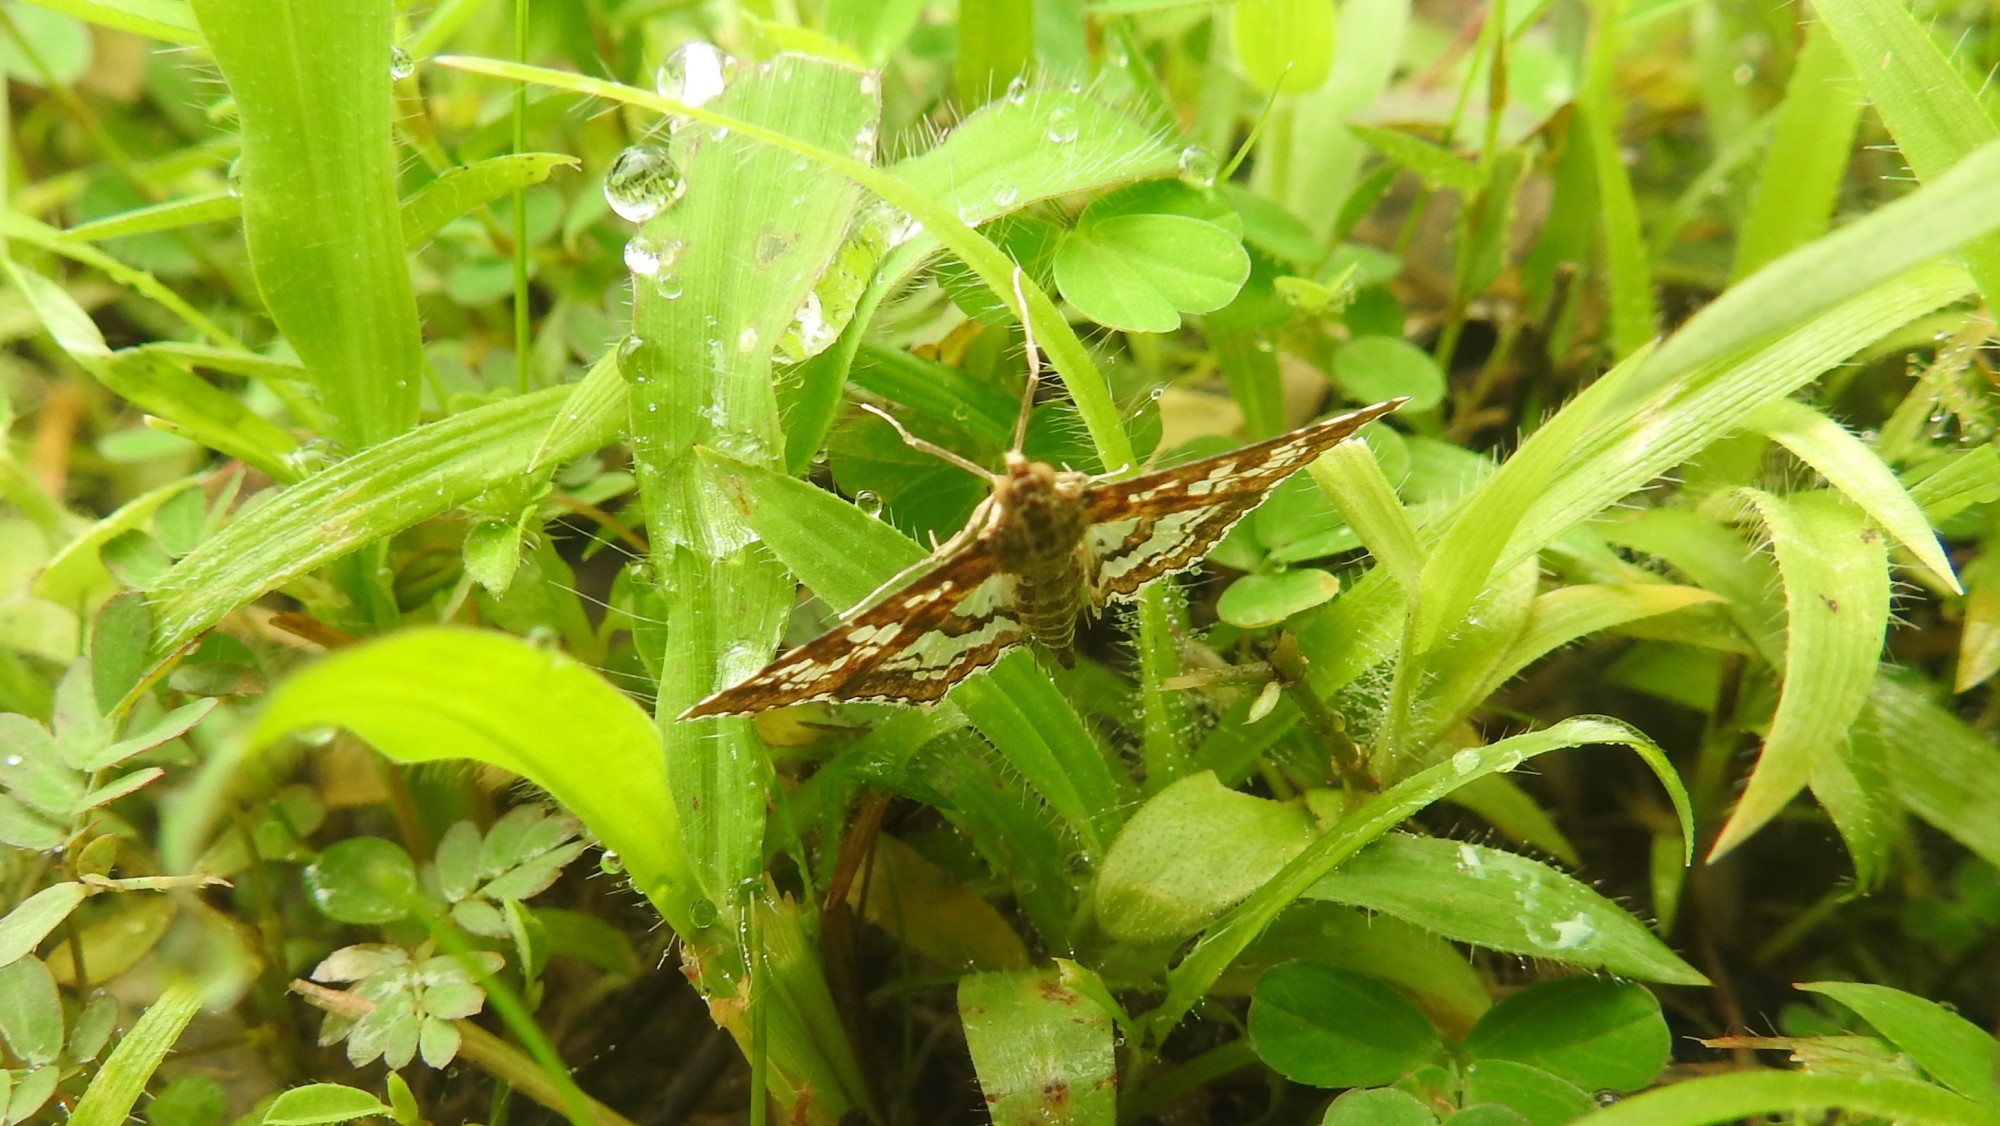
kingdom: Animalia
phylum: Arthropoda
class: Insecta
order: Lepidoptera
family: Crambidae
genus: Sameodes
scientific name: Sameodes cancellalis
